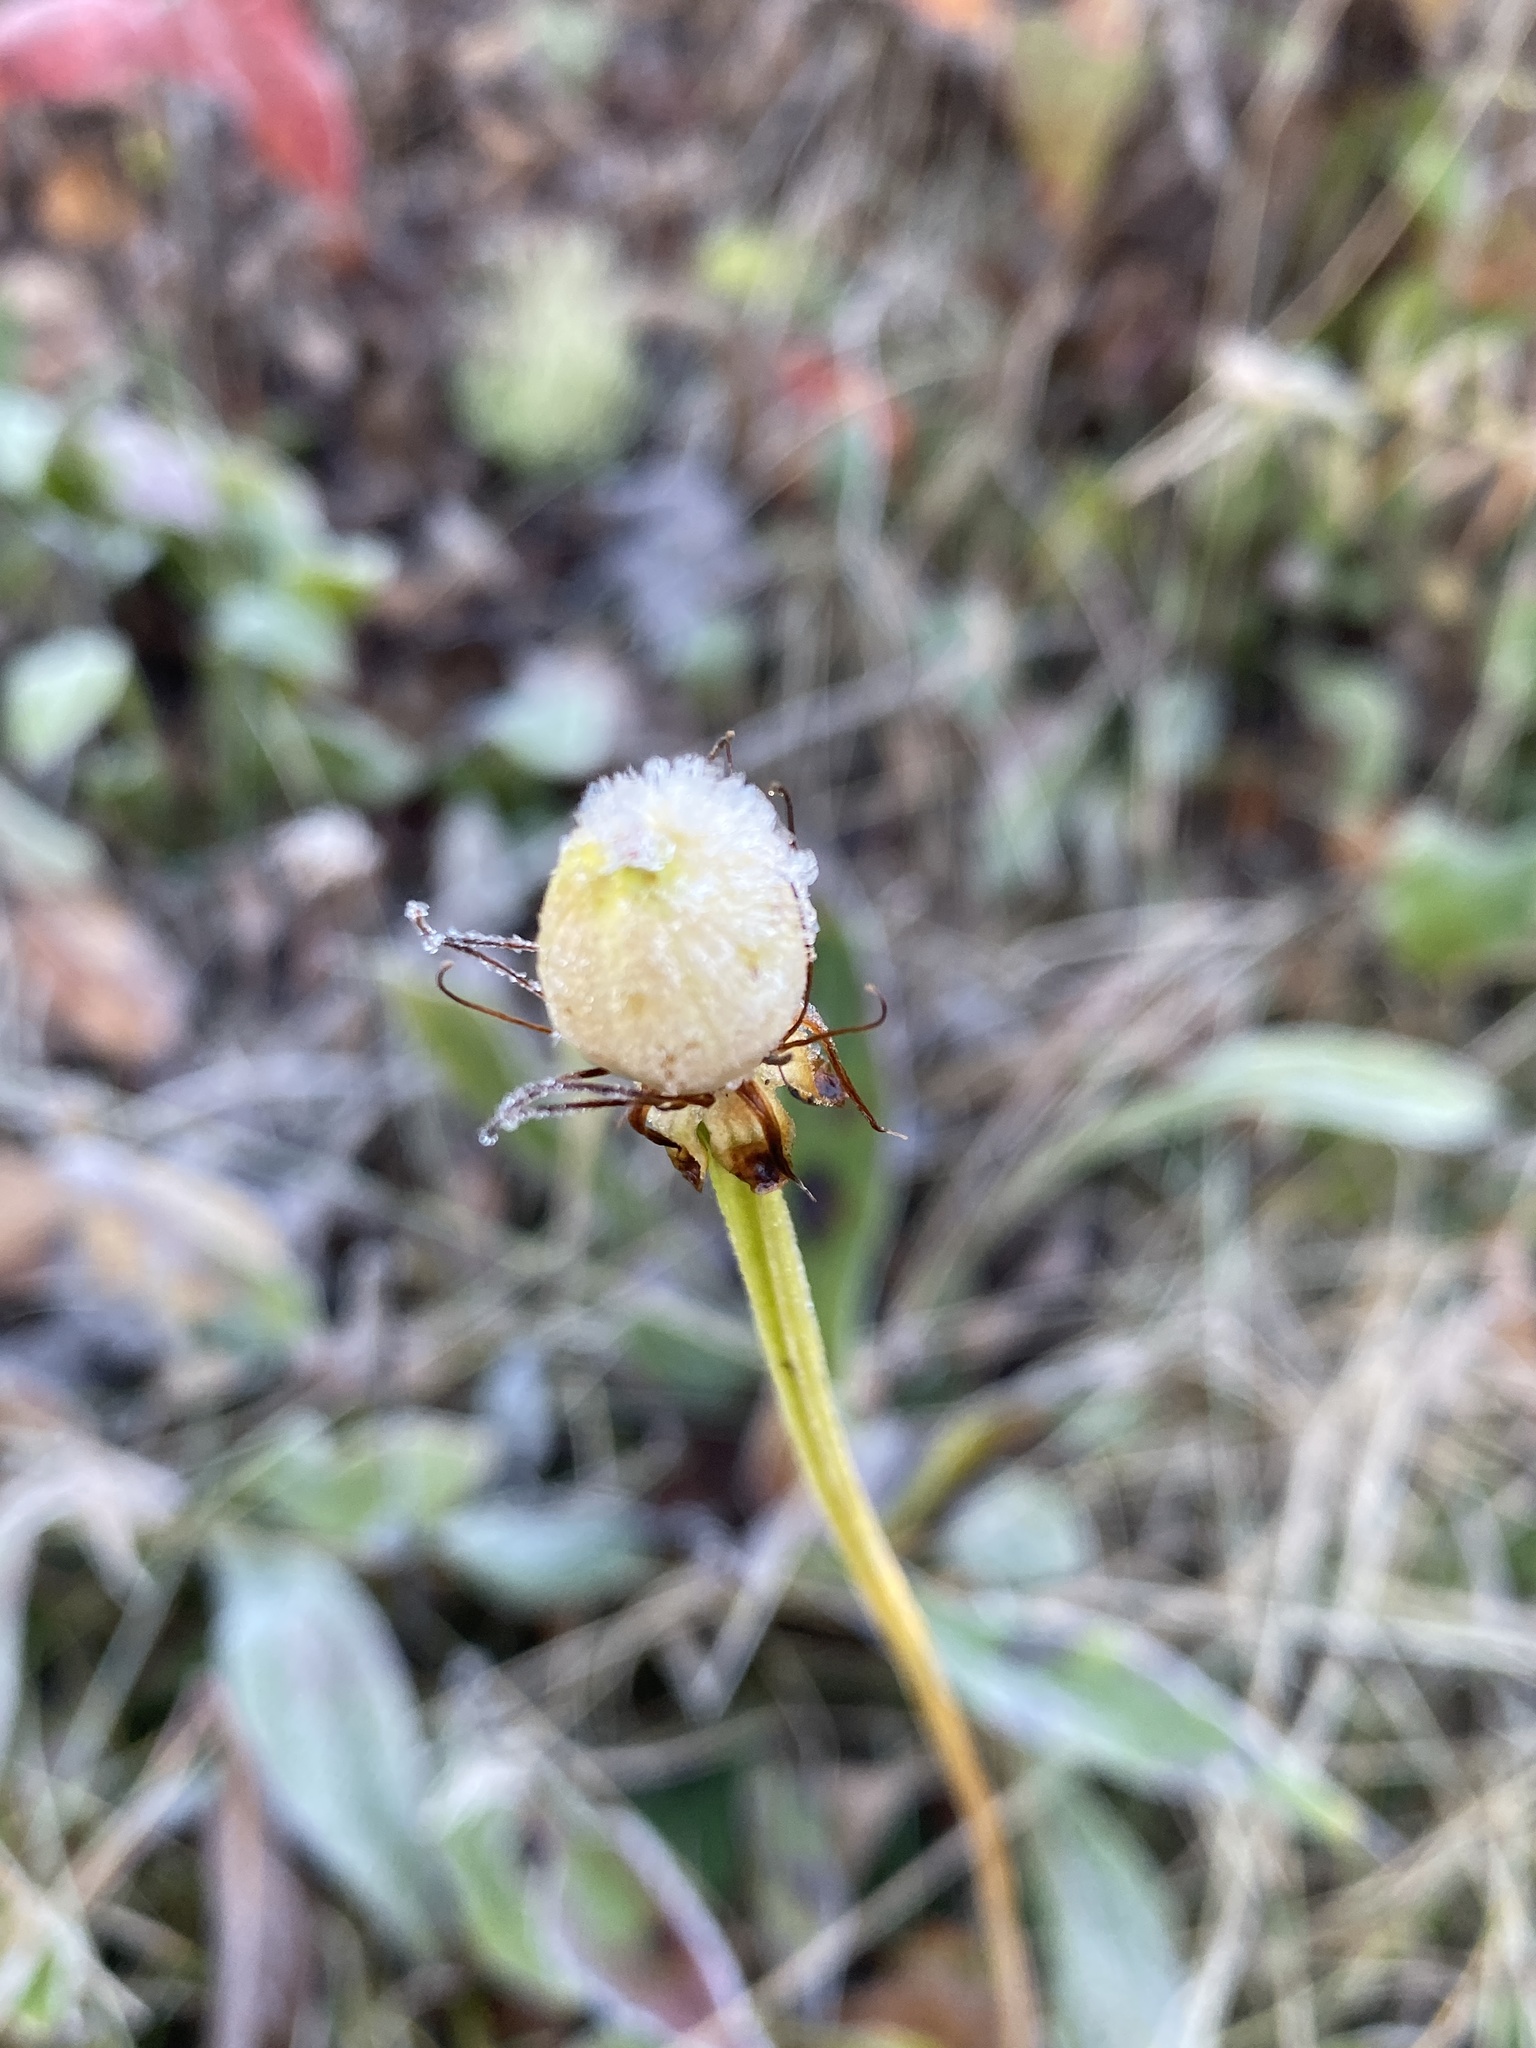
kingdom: Plantae
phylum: Tracheophyta
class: Magnoliopsida
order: Celastrales
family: Parnassiaceae
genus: Parnassia
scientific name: Parnassia grandifolia
